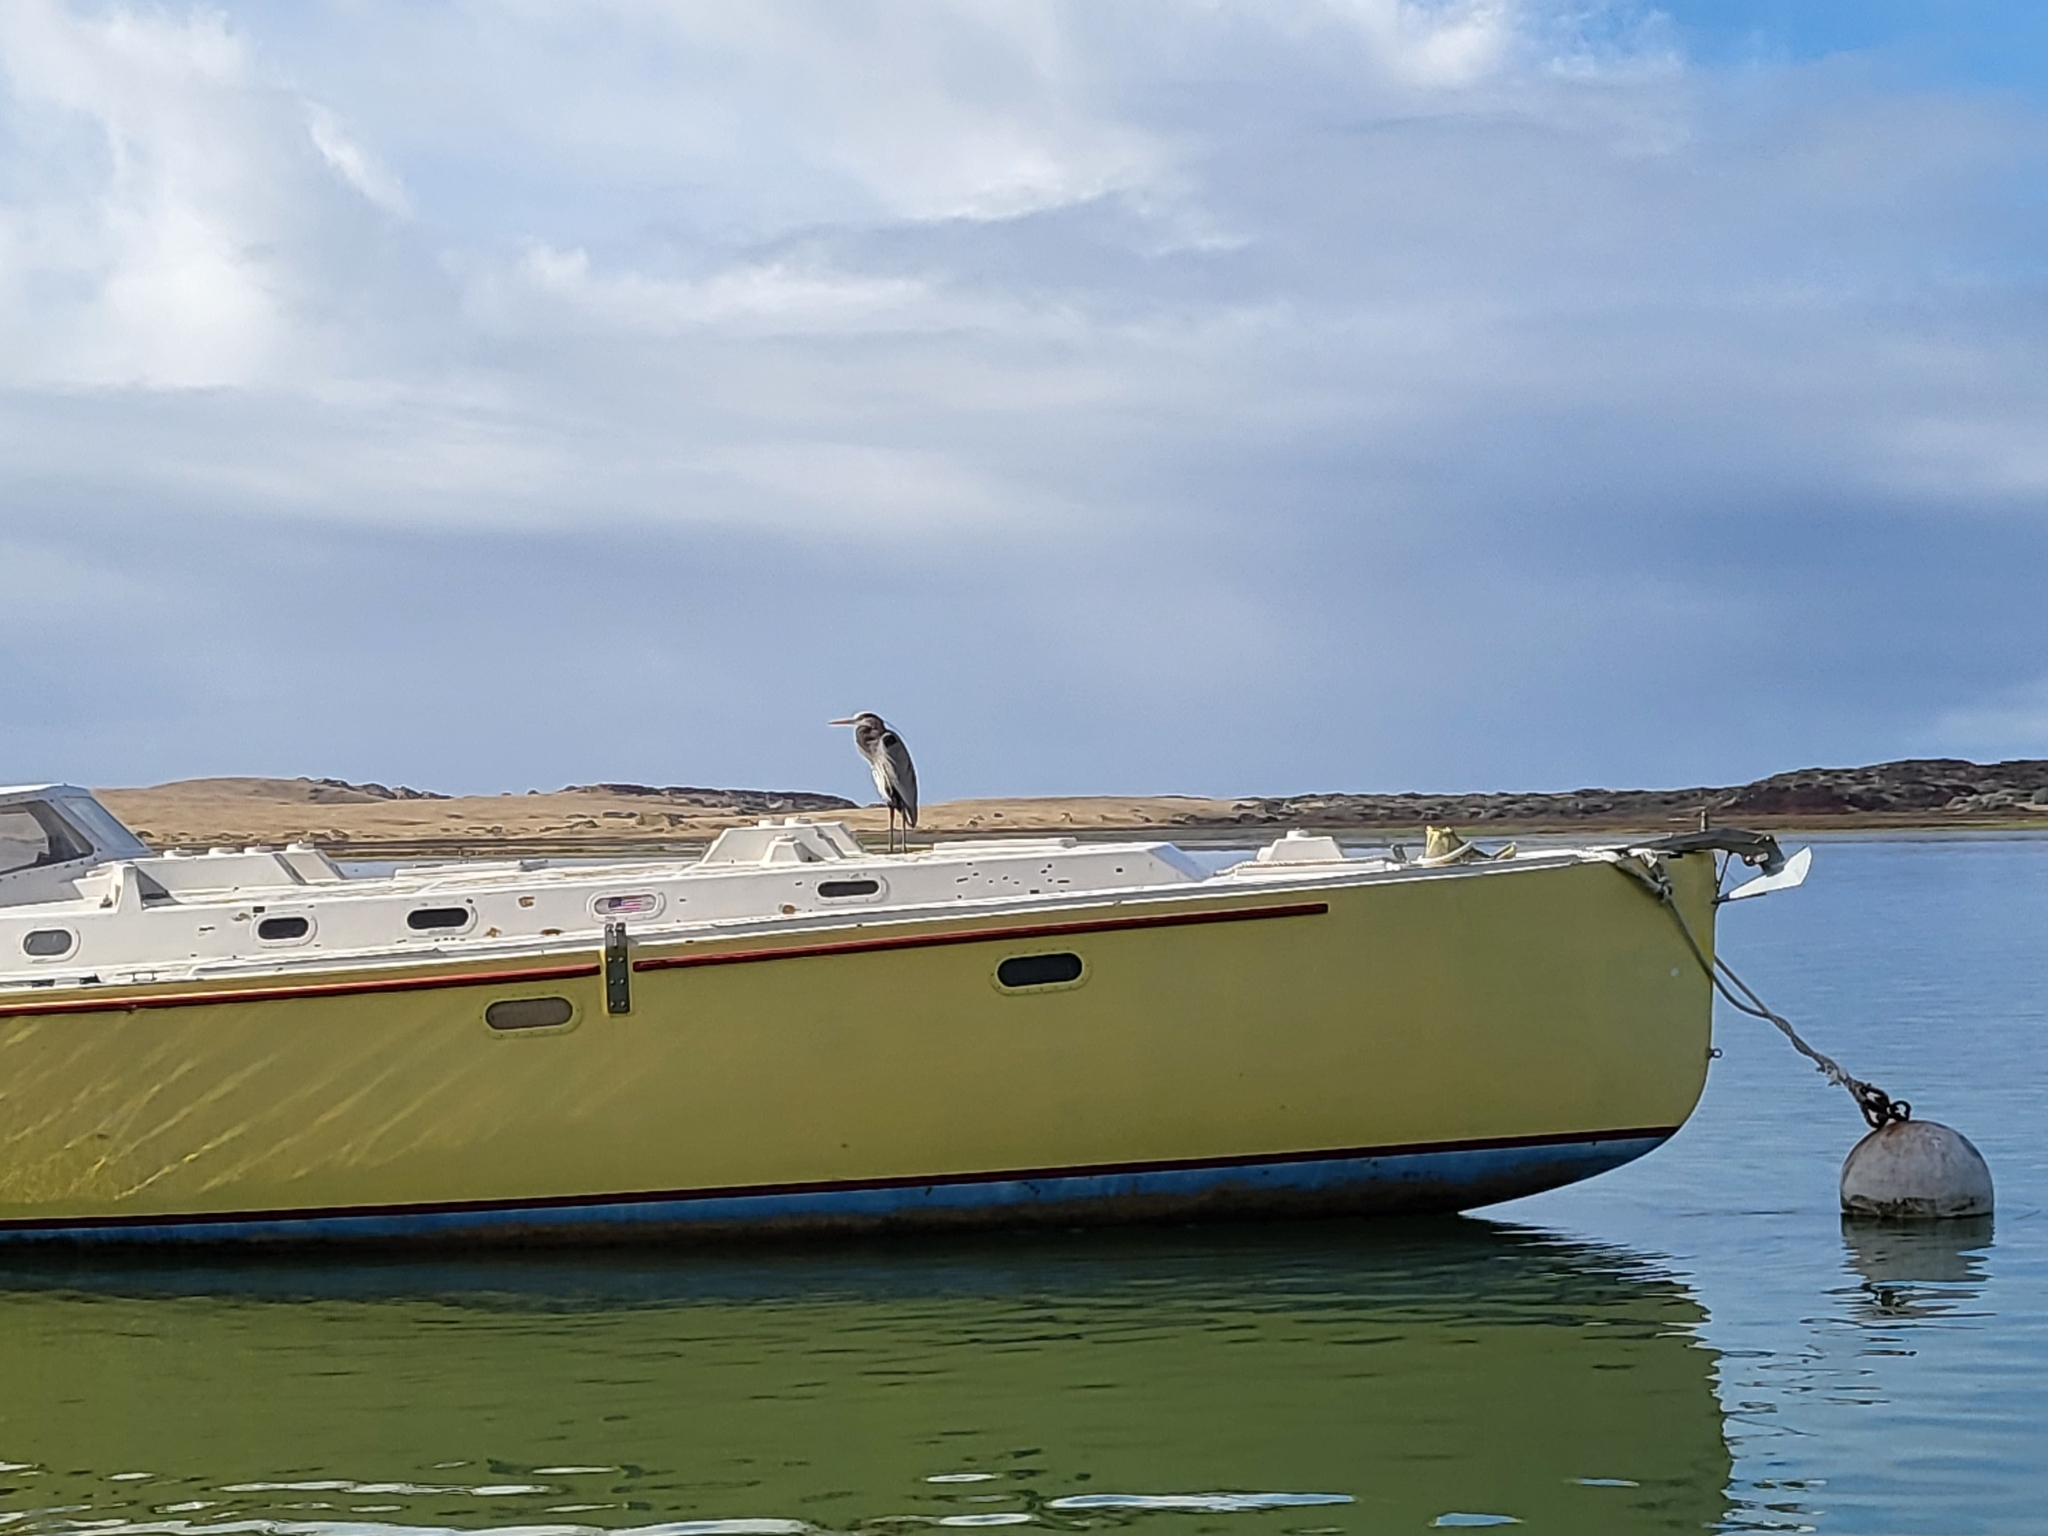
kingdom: Animalia
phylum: Chordata
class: Aves
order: Pelecaniformes
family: Ardeidae
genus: Ardea
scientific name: Ardea herodias
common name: Great blue heron
